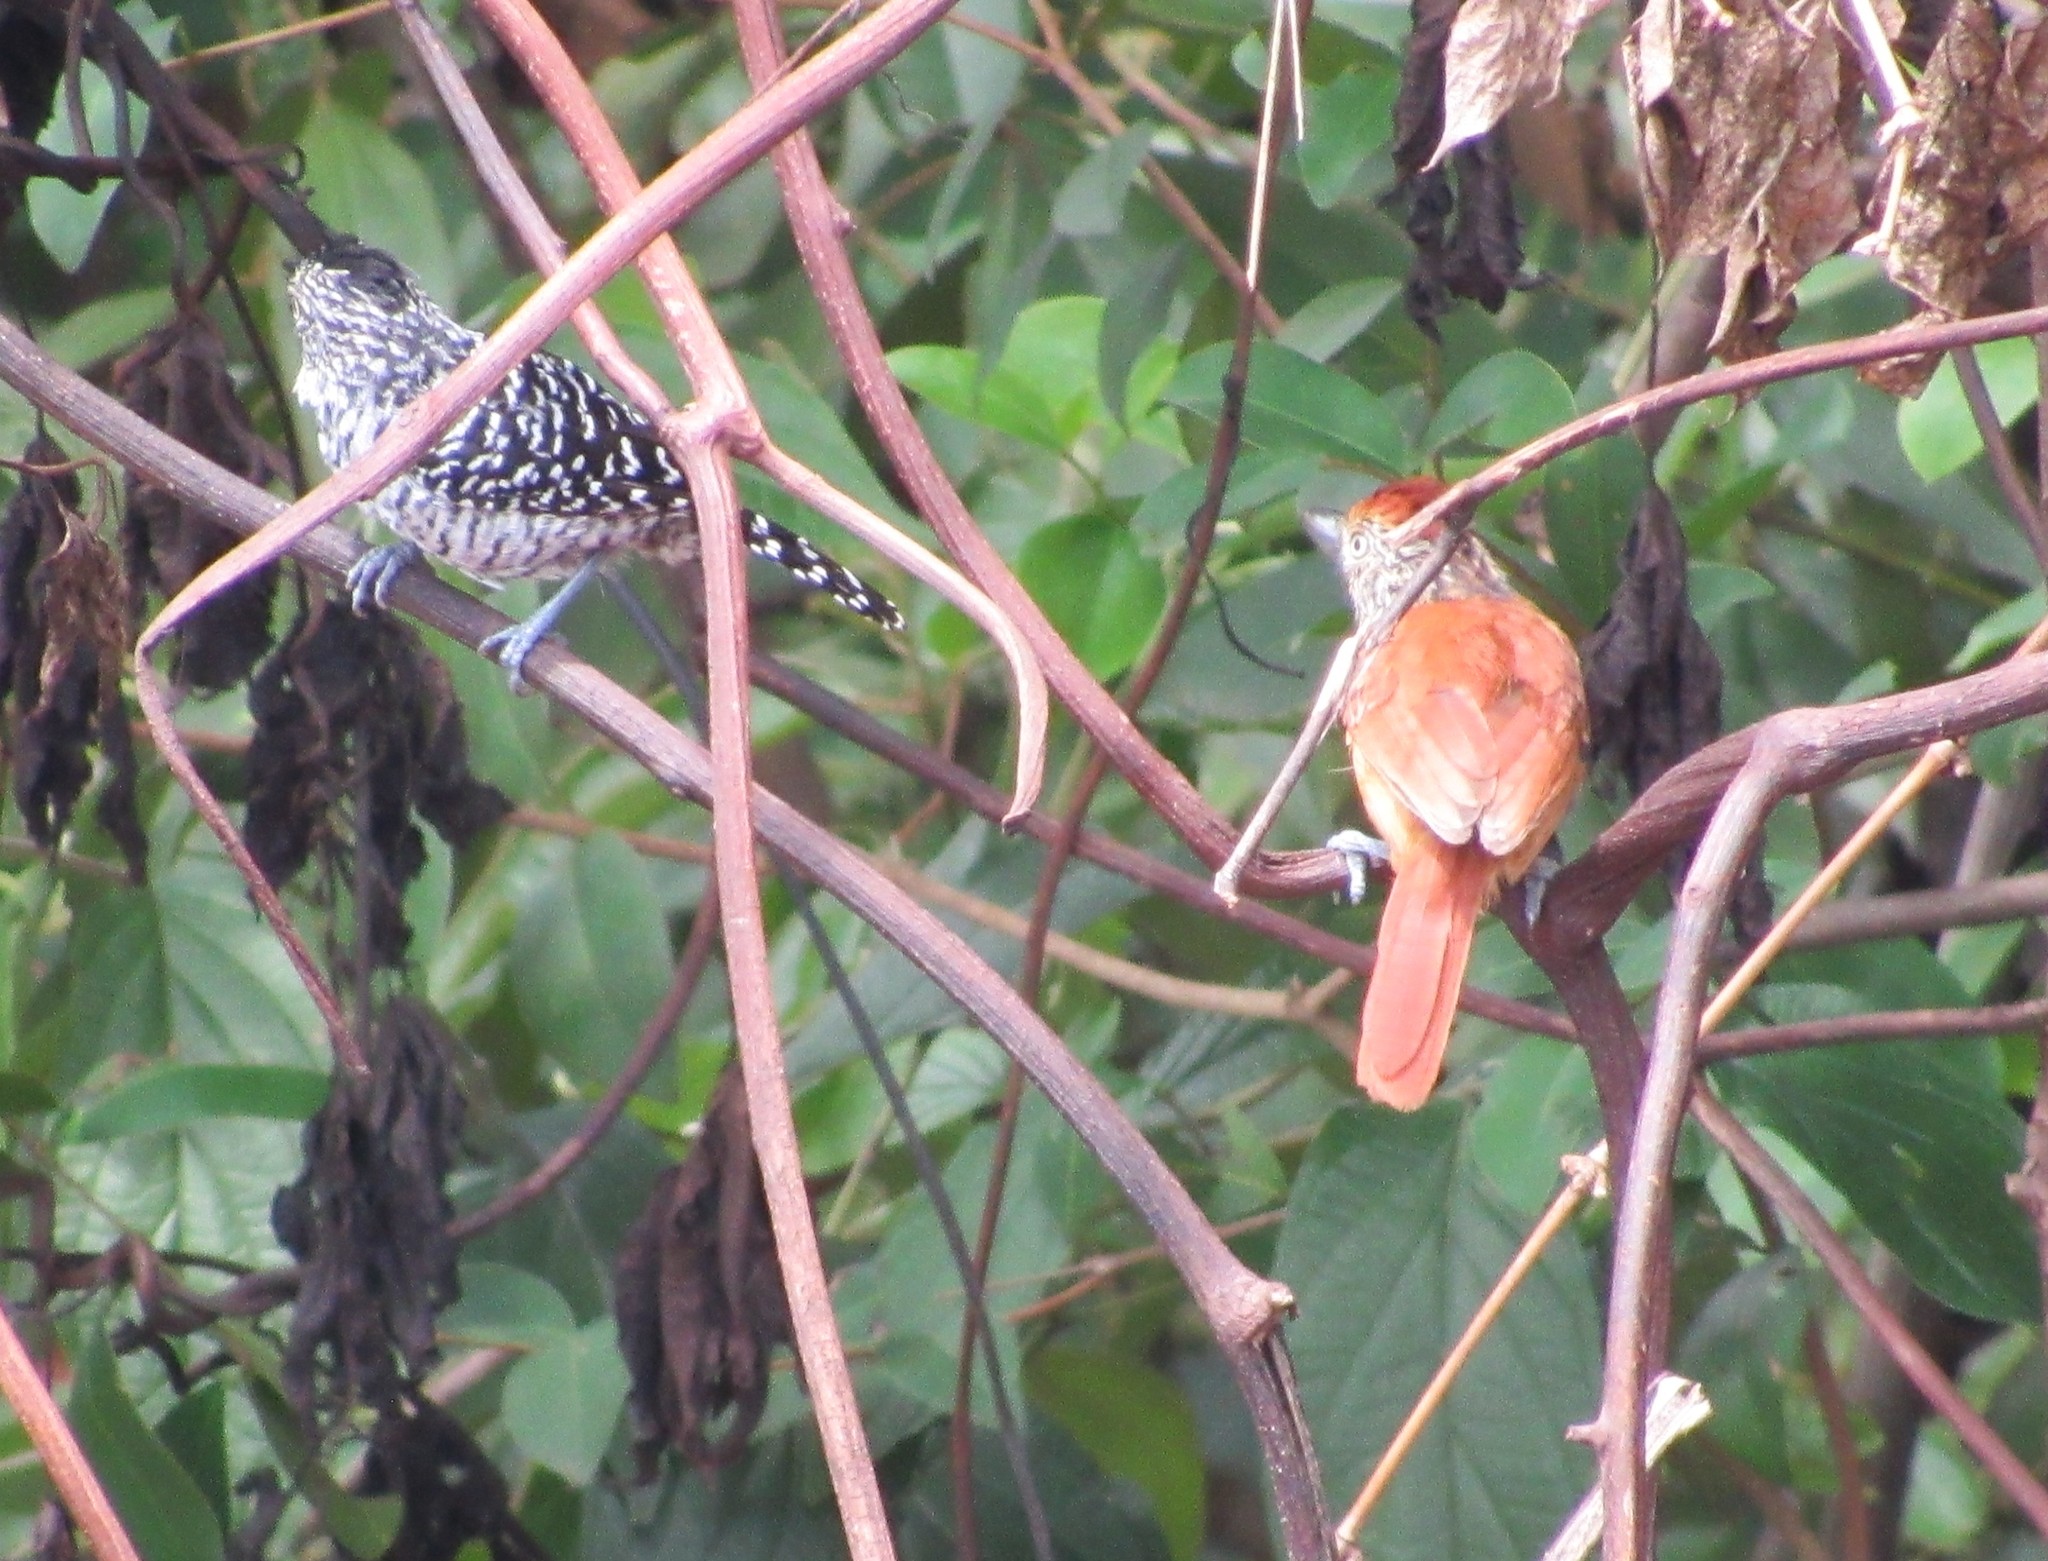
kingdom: Animalia
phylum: Chordata
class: Aves
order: Passeriformes
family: Thamnophilidae
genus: Thamnophilus
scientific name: Thamnophilus doliatus
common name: Barred antshrike
